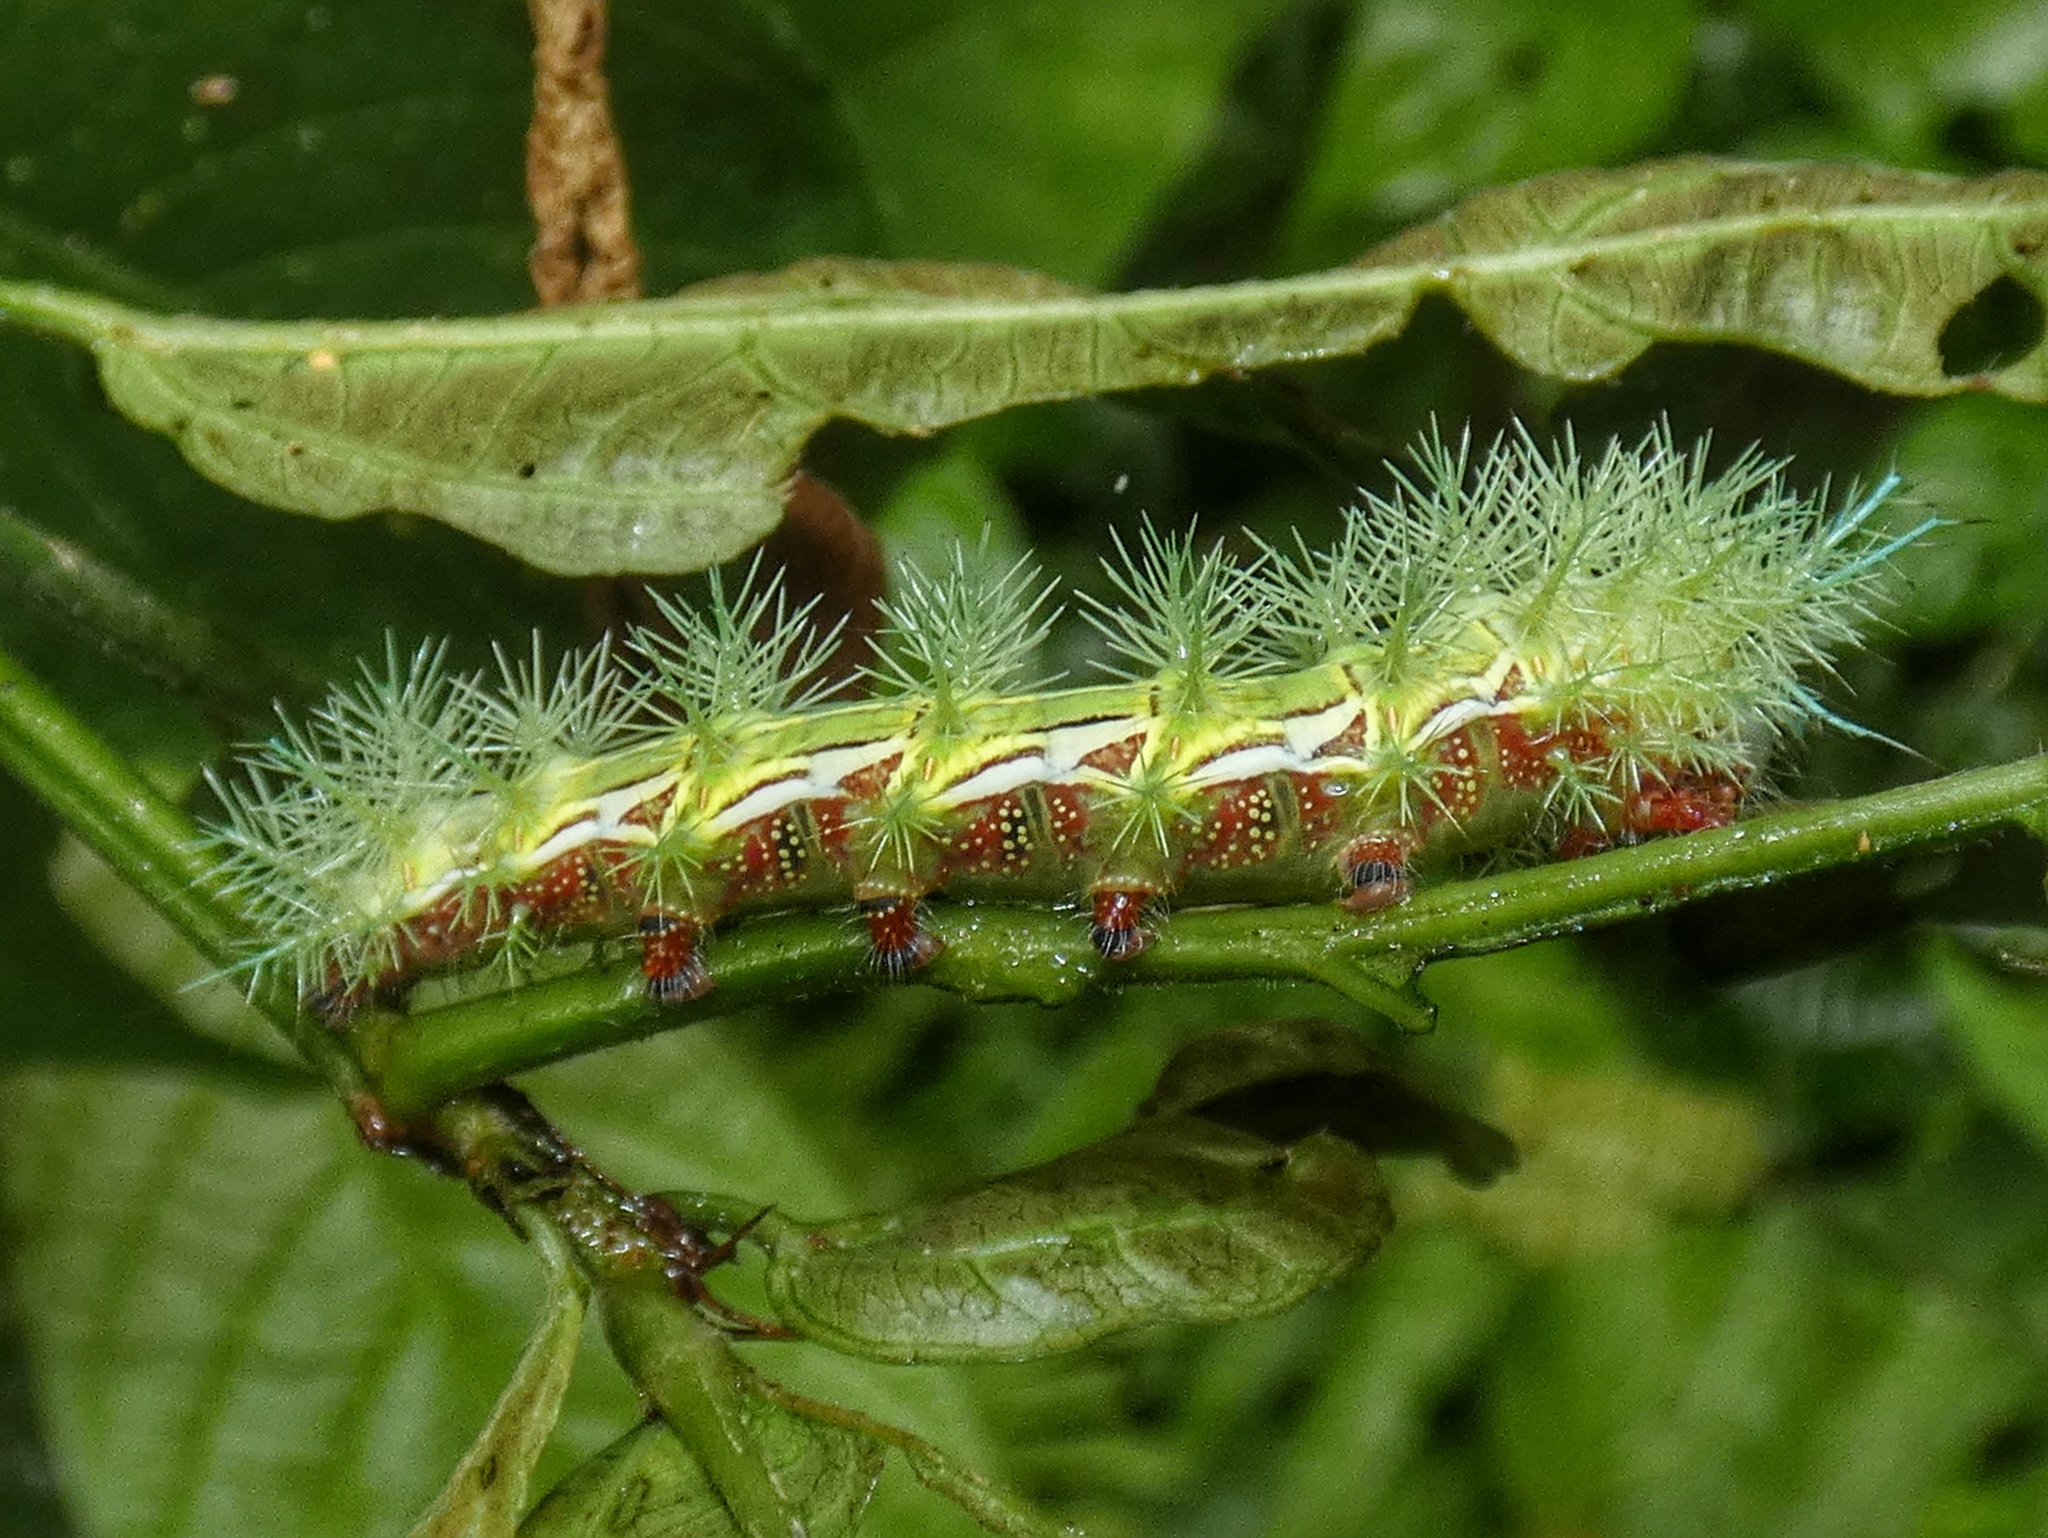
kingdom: Animalia
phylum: Arthropoda
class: Insecta
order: Lepidoptera
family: Saturniidae
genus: Automeris
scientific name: Automeris zugana
